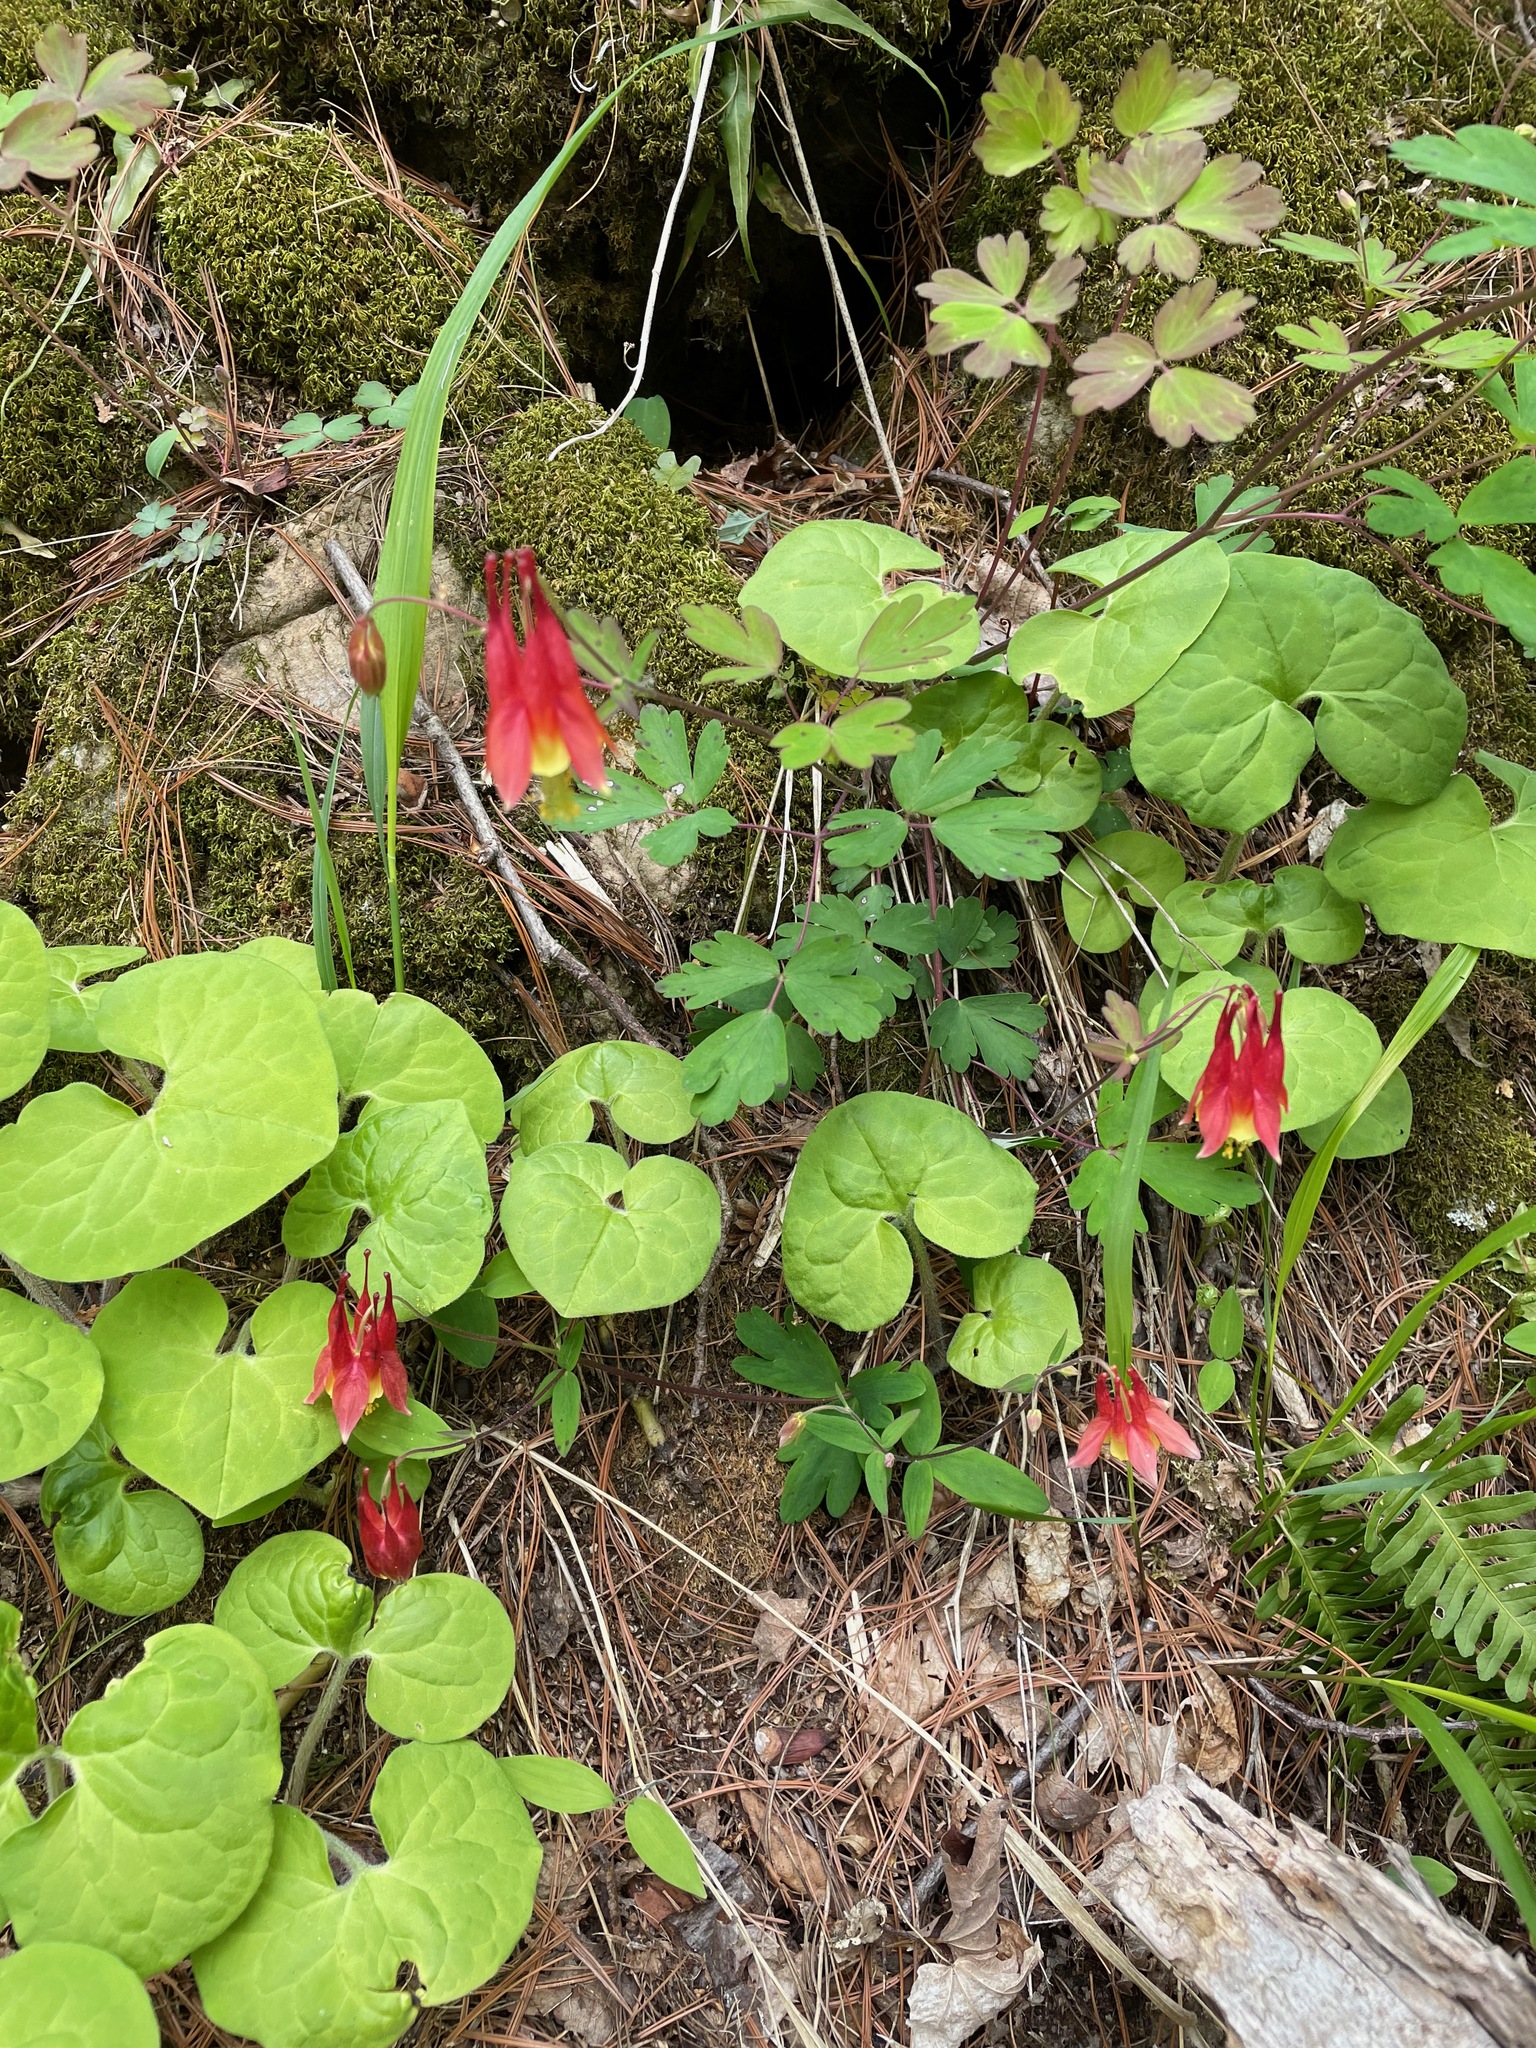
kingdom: Plantae
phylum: Tracheophyta
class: Magnoliopsida
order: Ranunculales
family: Ranunculaceae
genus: Aquilegia
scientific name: Aquilegia canadensis
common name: American columbine
